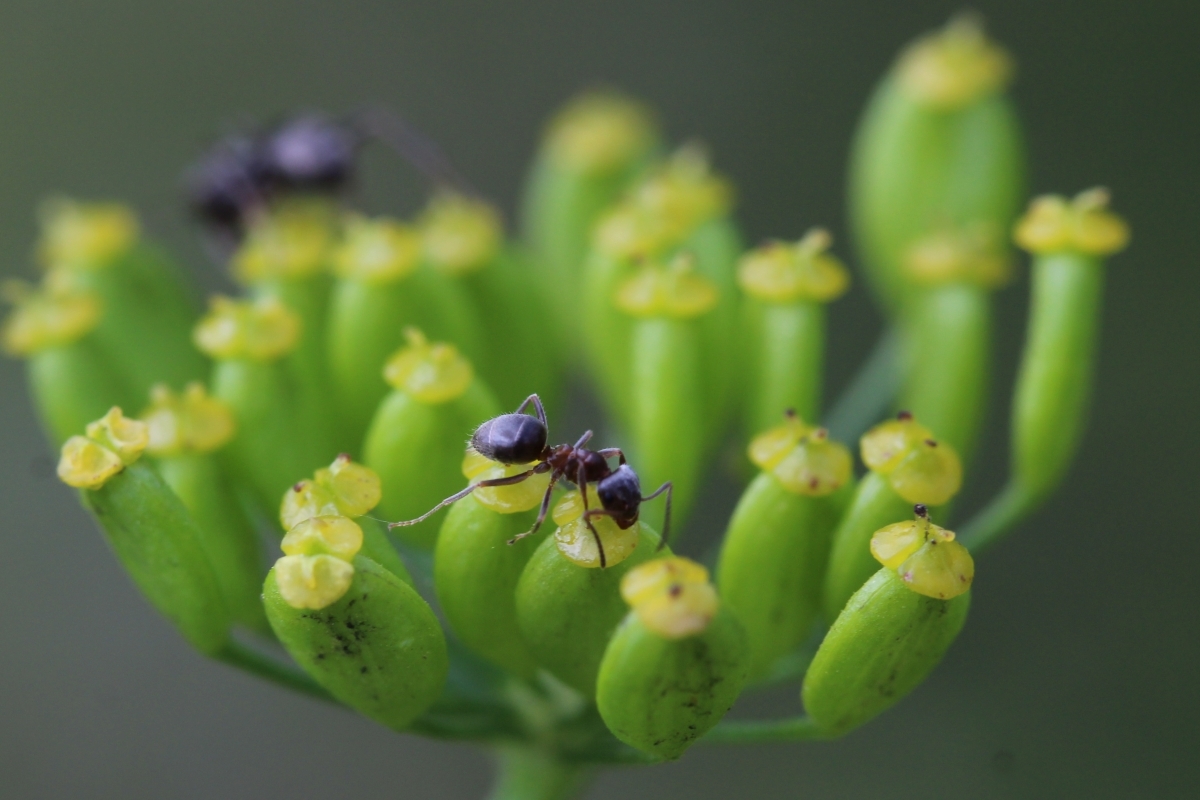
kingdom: Animalia
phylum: Arthropoda
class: Insecta
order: Hymenoptera
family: Formicidae
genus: Lasius
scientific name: Lasius
